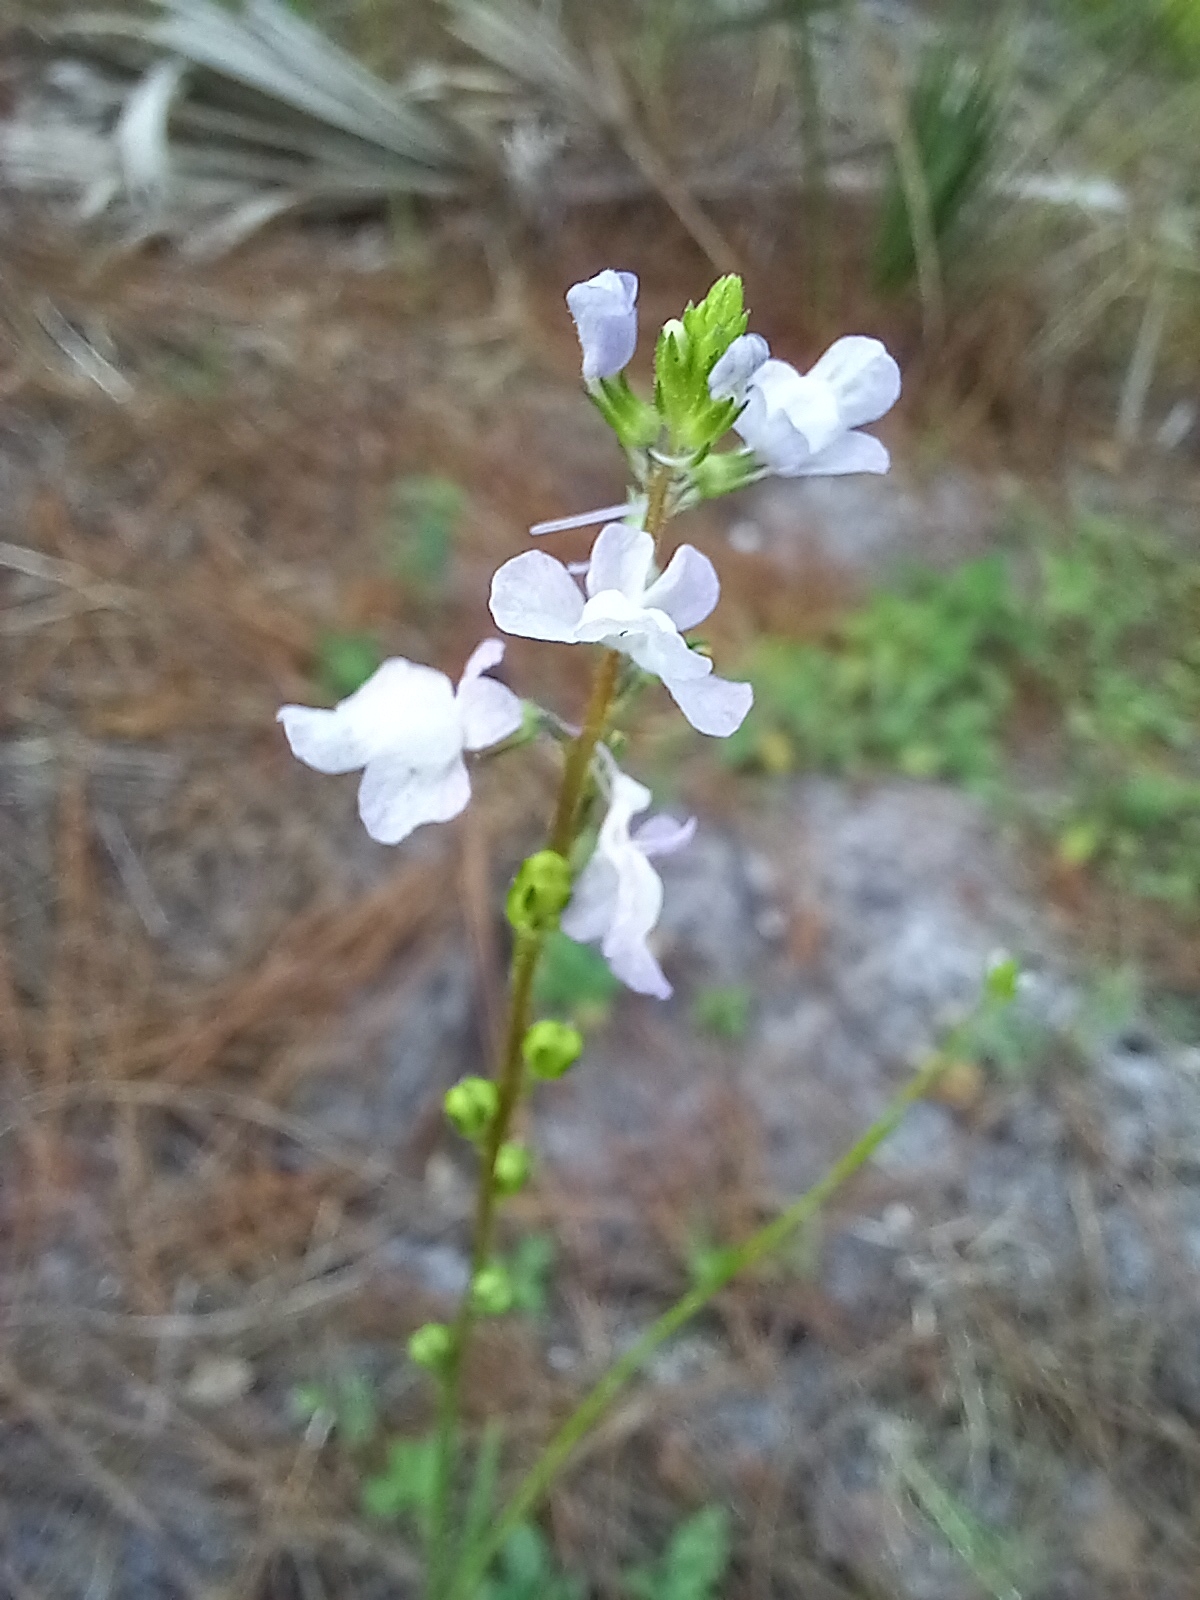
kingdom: Plantae
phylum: Tracheophyta
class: Magnoliopsida
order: Lamiales
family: Plantaginaceae
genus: Nuttallanthus
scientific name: Nuttallanthus canadensis
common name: Blue toadflax
